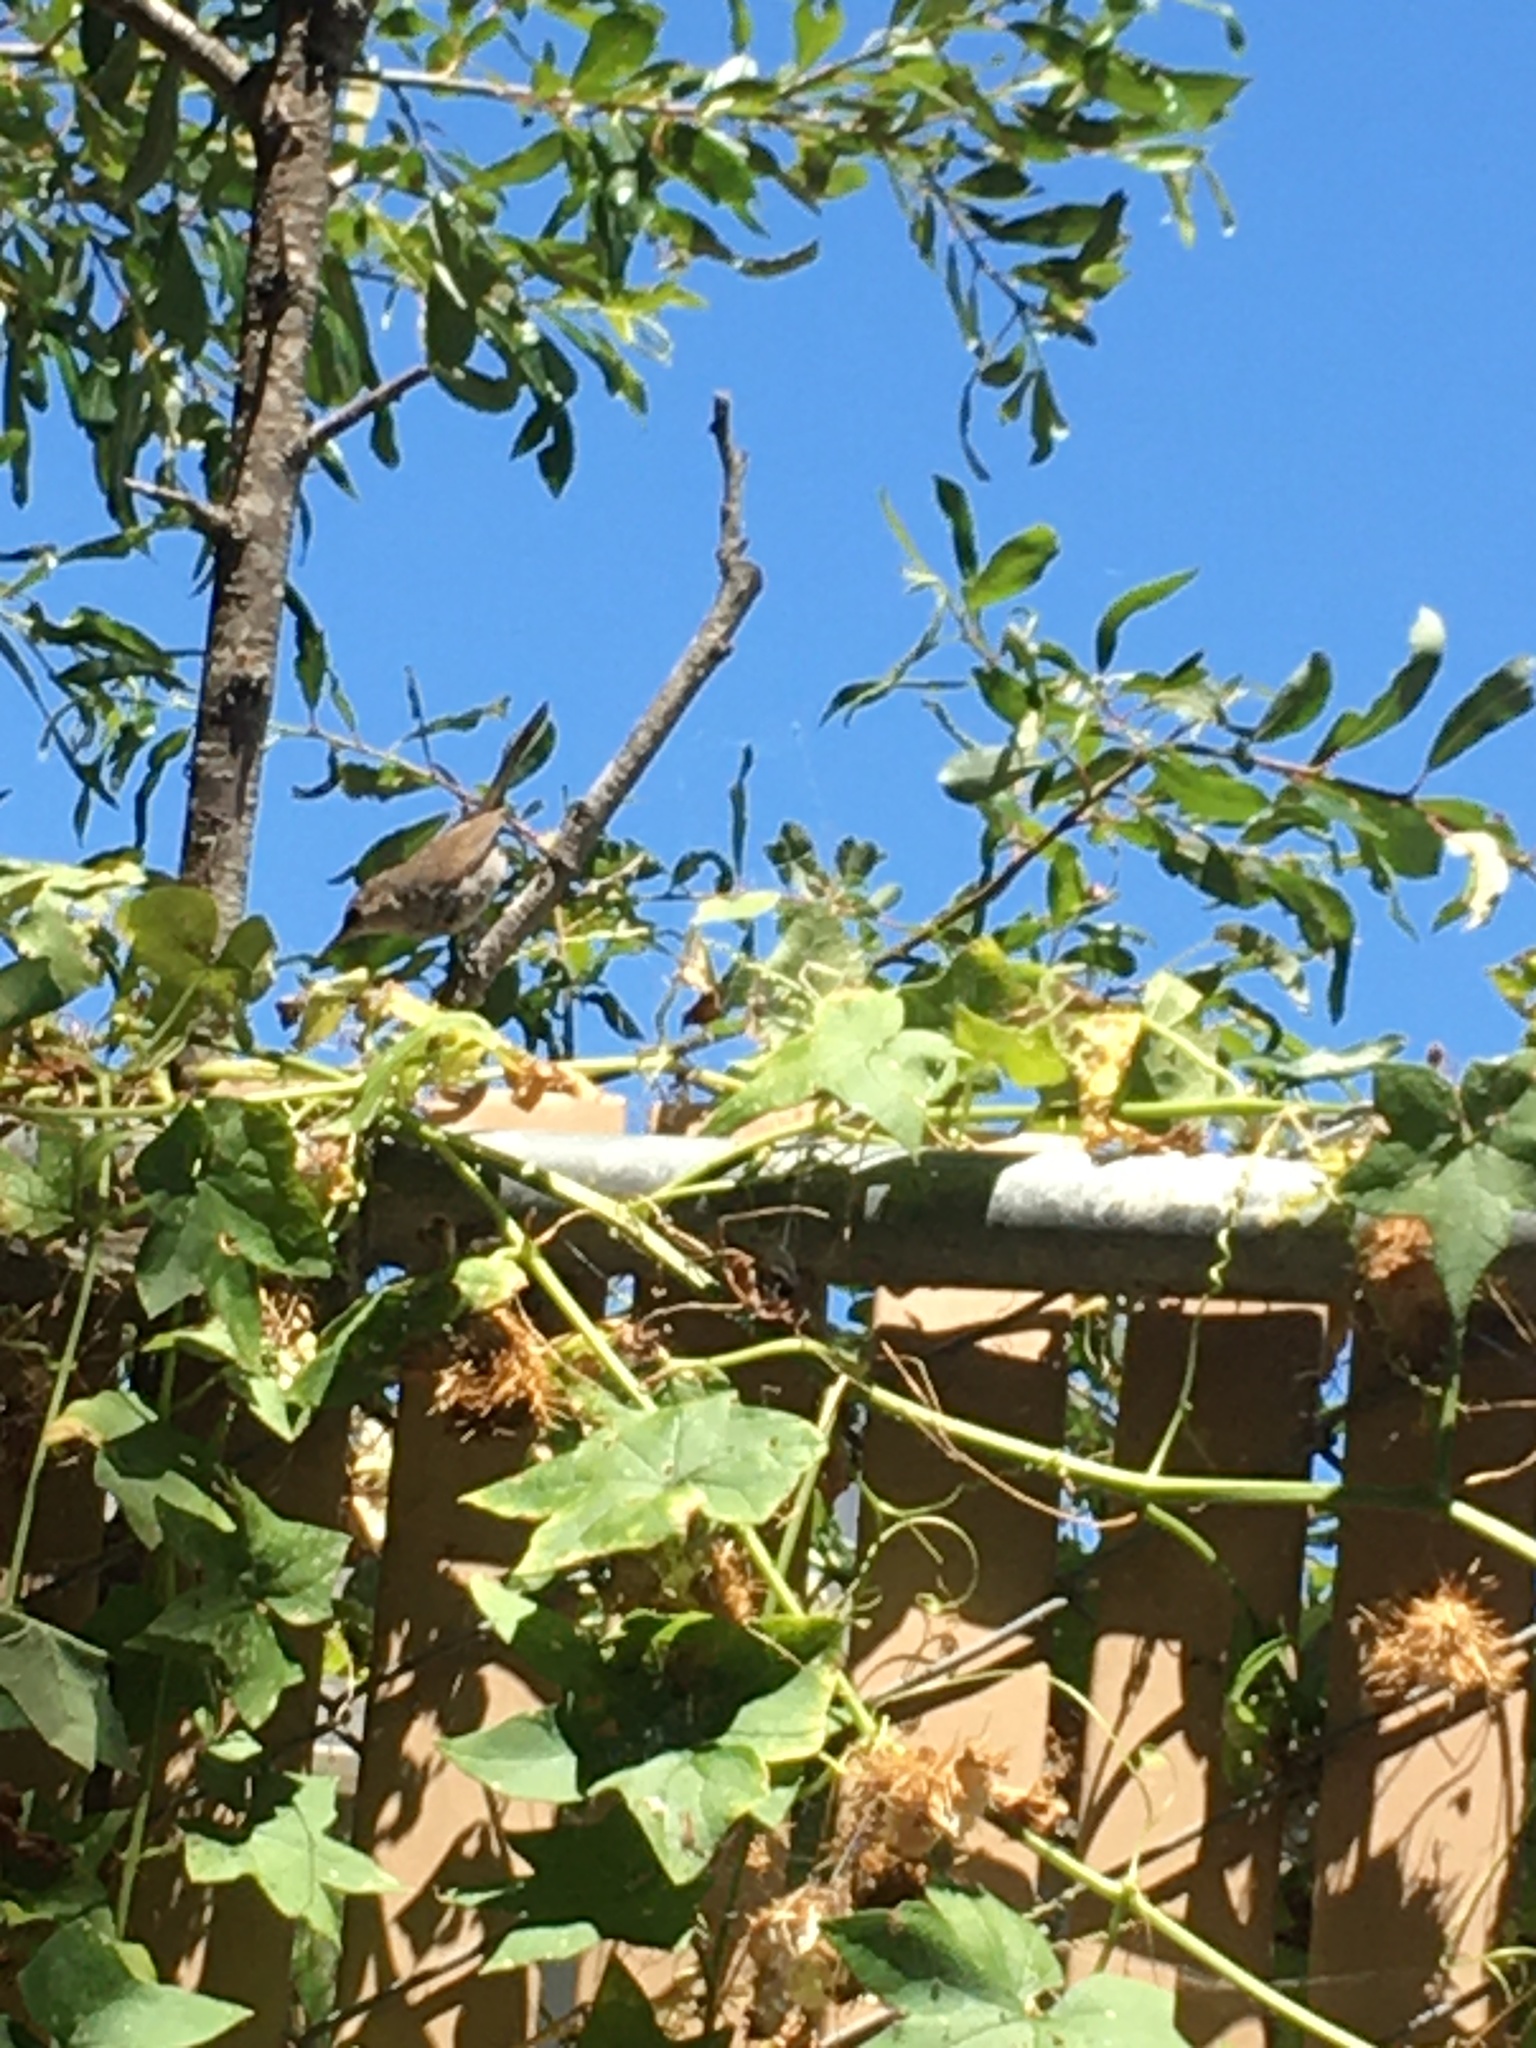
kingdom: Animalia
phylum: Chordata
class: Aves
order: Passeriformes
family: Troglodytidae
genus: Thryomanes
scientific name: Thryomanes bewickii
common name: Bewick's wren
